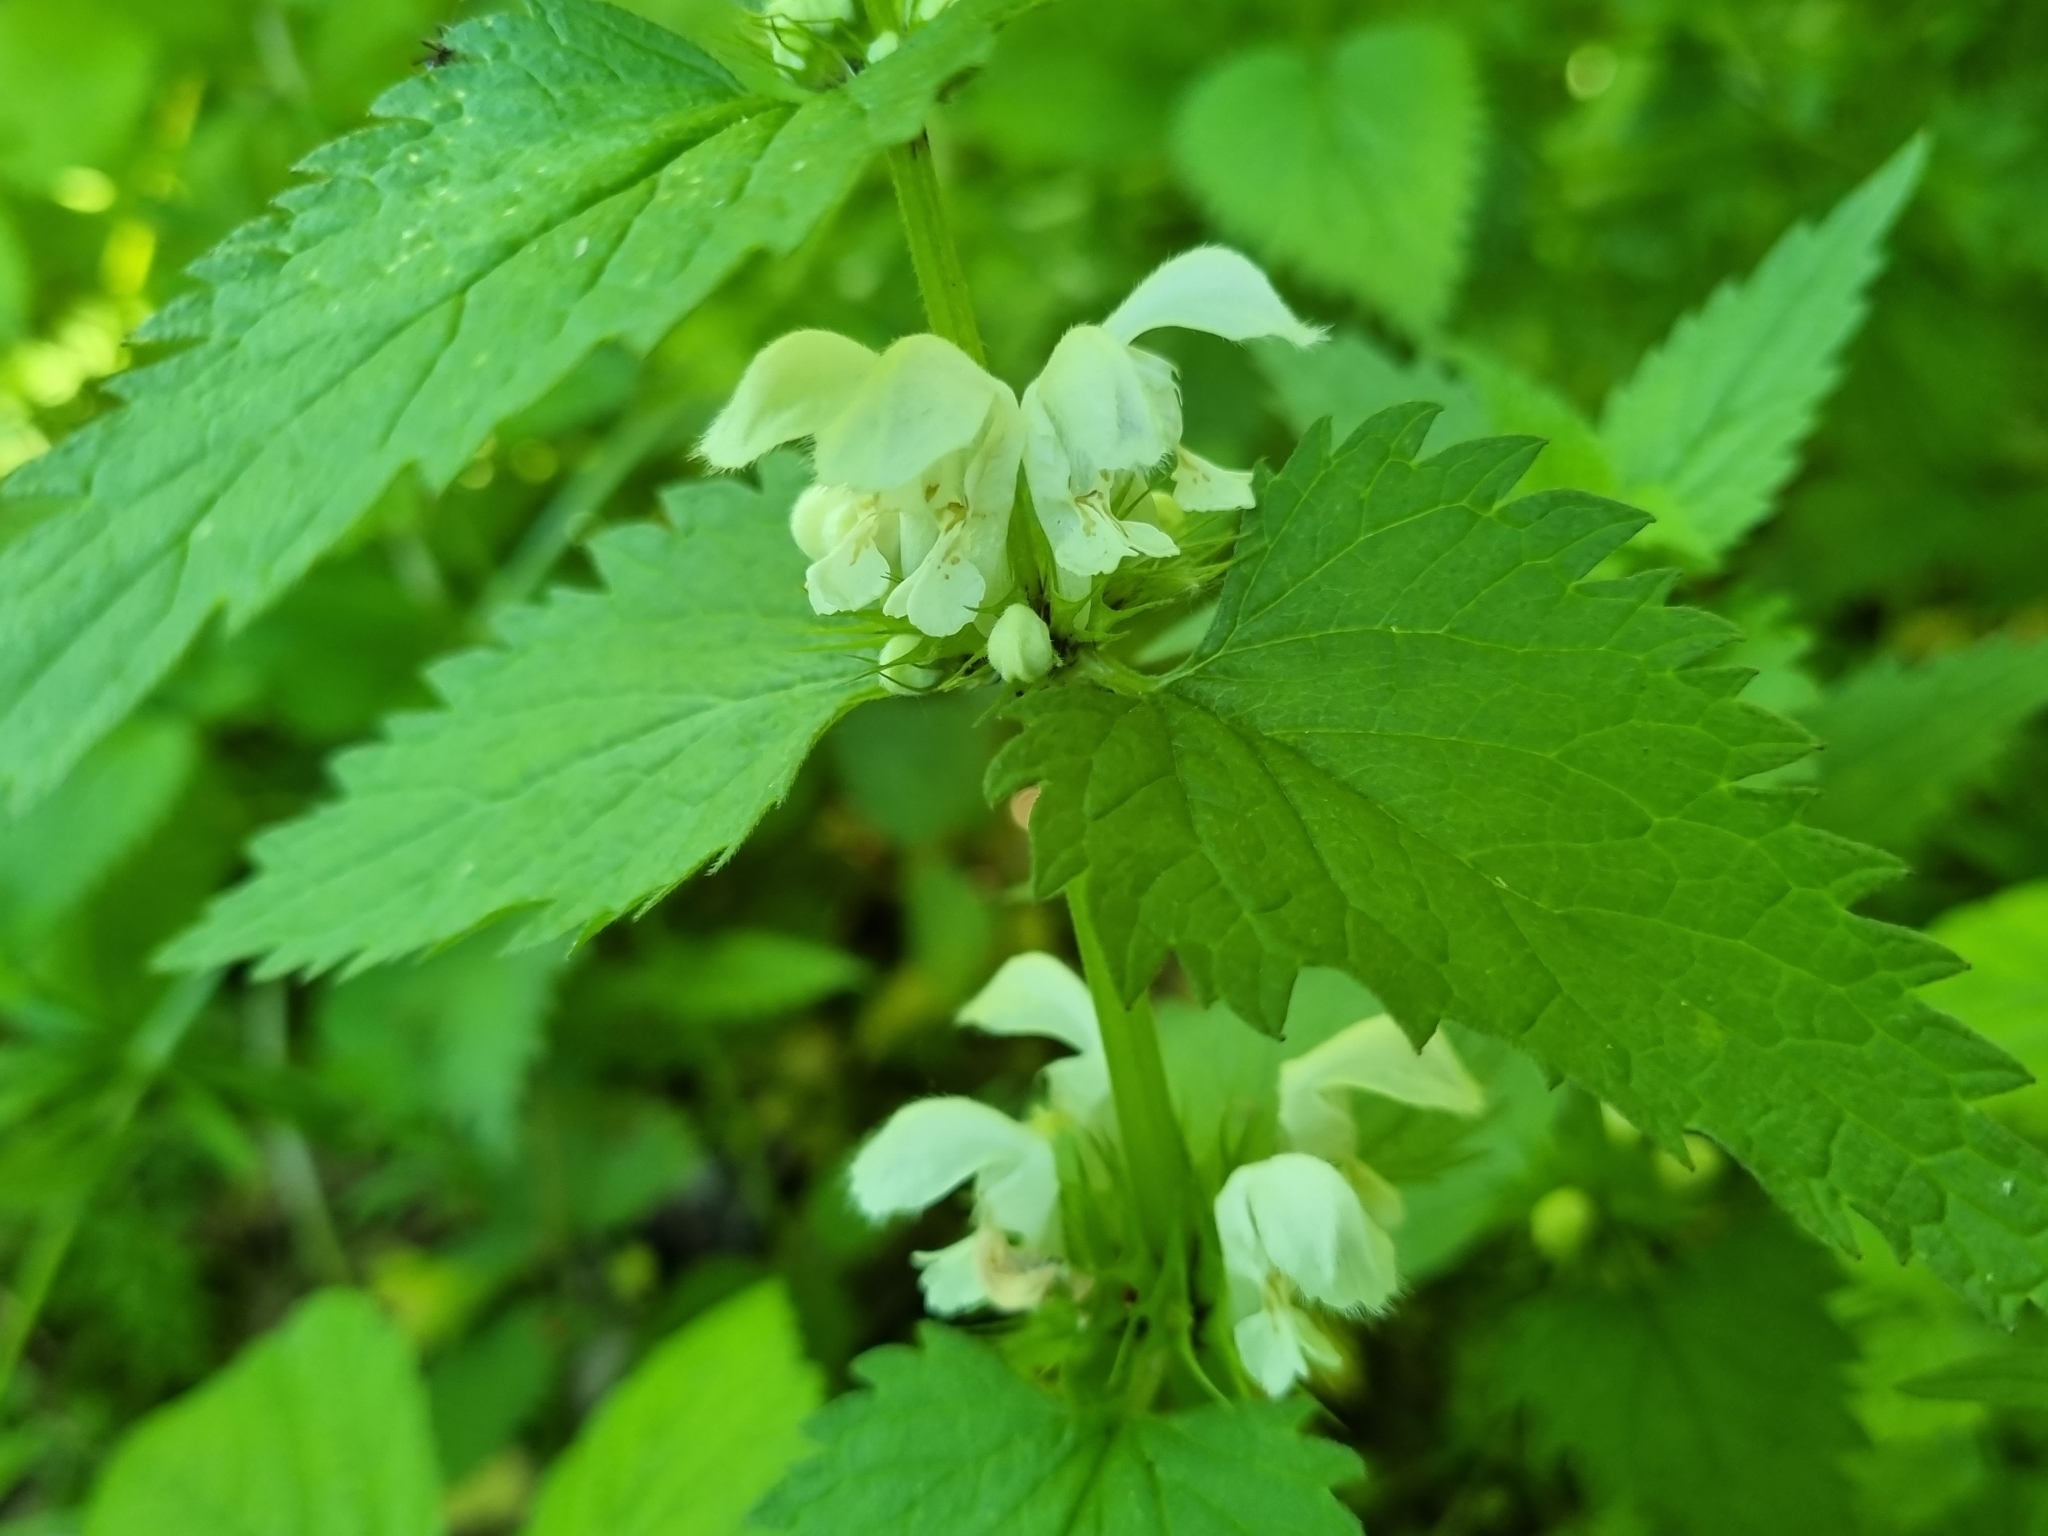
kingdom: Plantae
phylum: Tracheophyta
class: Magnoliopsida
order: Lamiales
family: Lamiaceae
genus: Lamium
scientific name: Lamium album
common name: White dead-nettle
